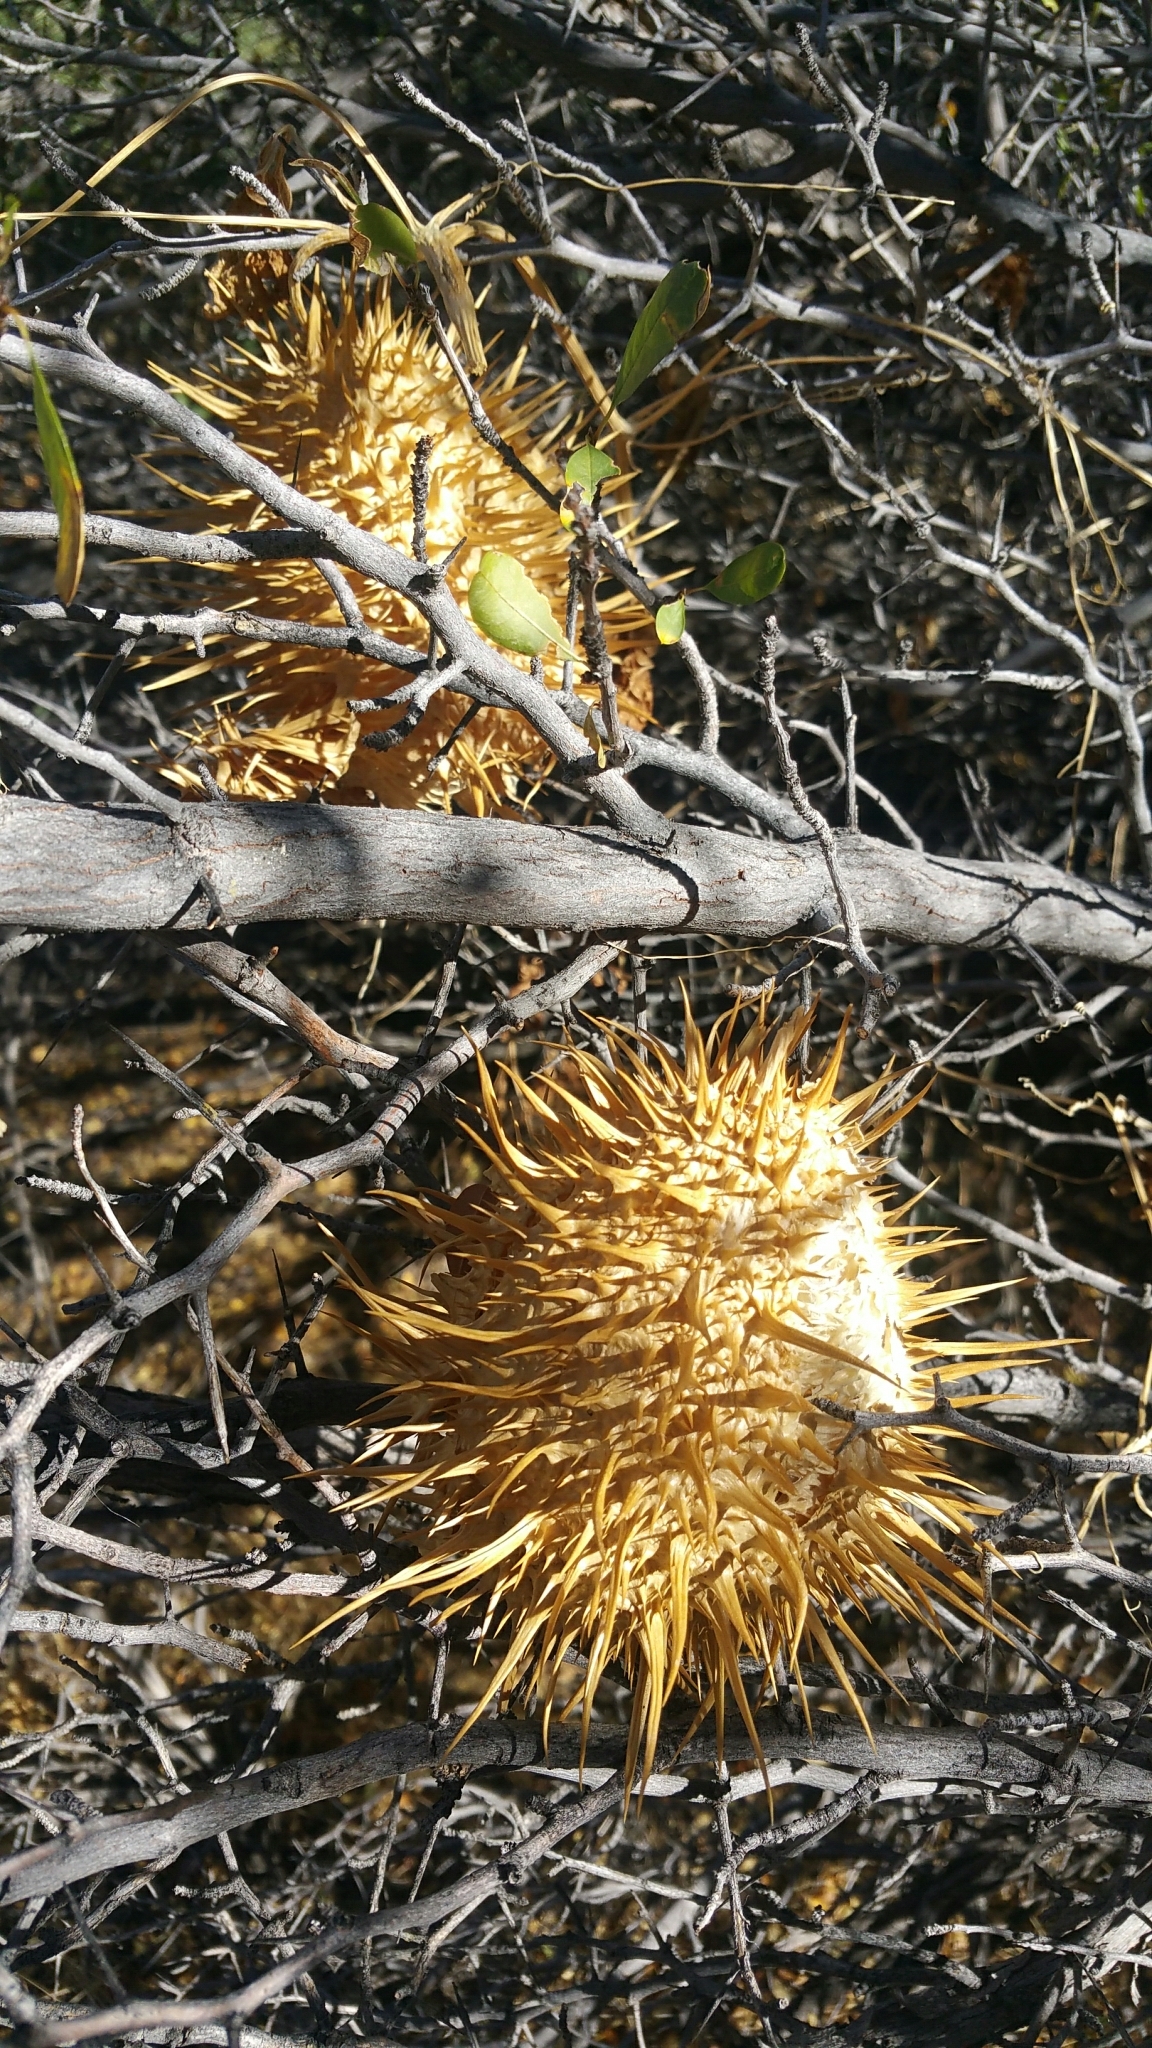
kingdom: Plantae
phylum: Tracheophyta
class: Magnoliopsida
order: Cucurbitales
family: Cucurbitaceae
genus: Marah
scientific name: Marah macrocarpa
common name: Cucamonga manroot
